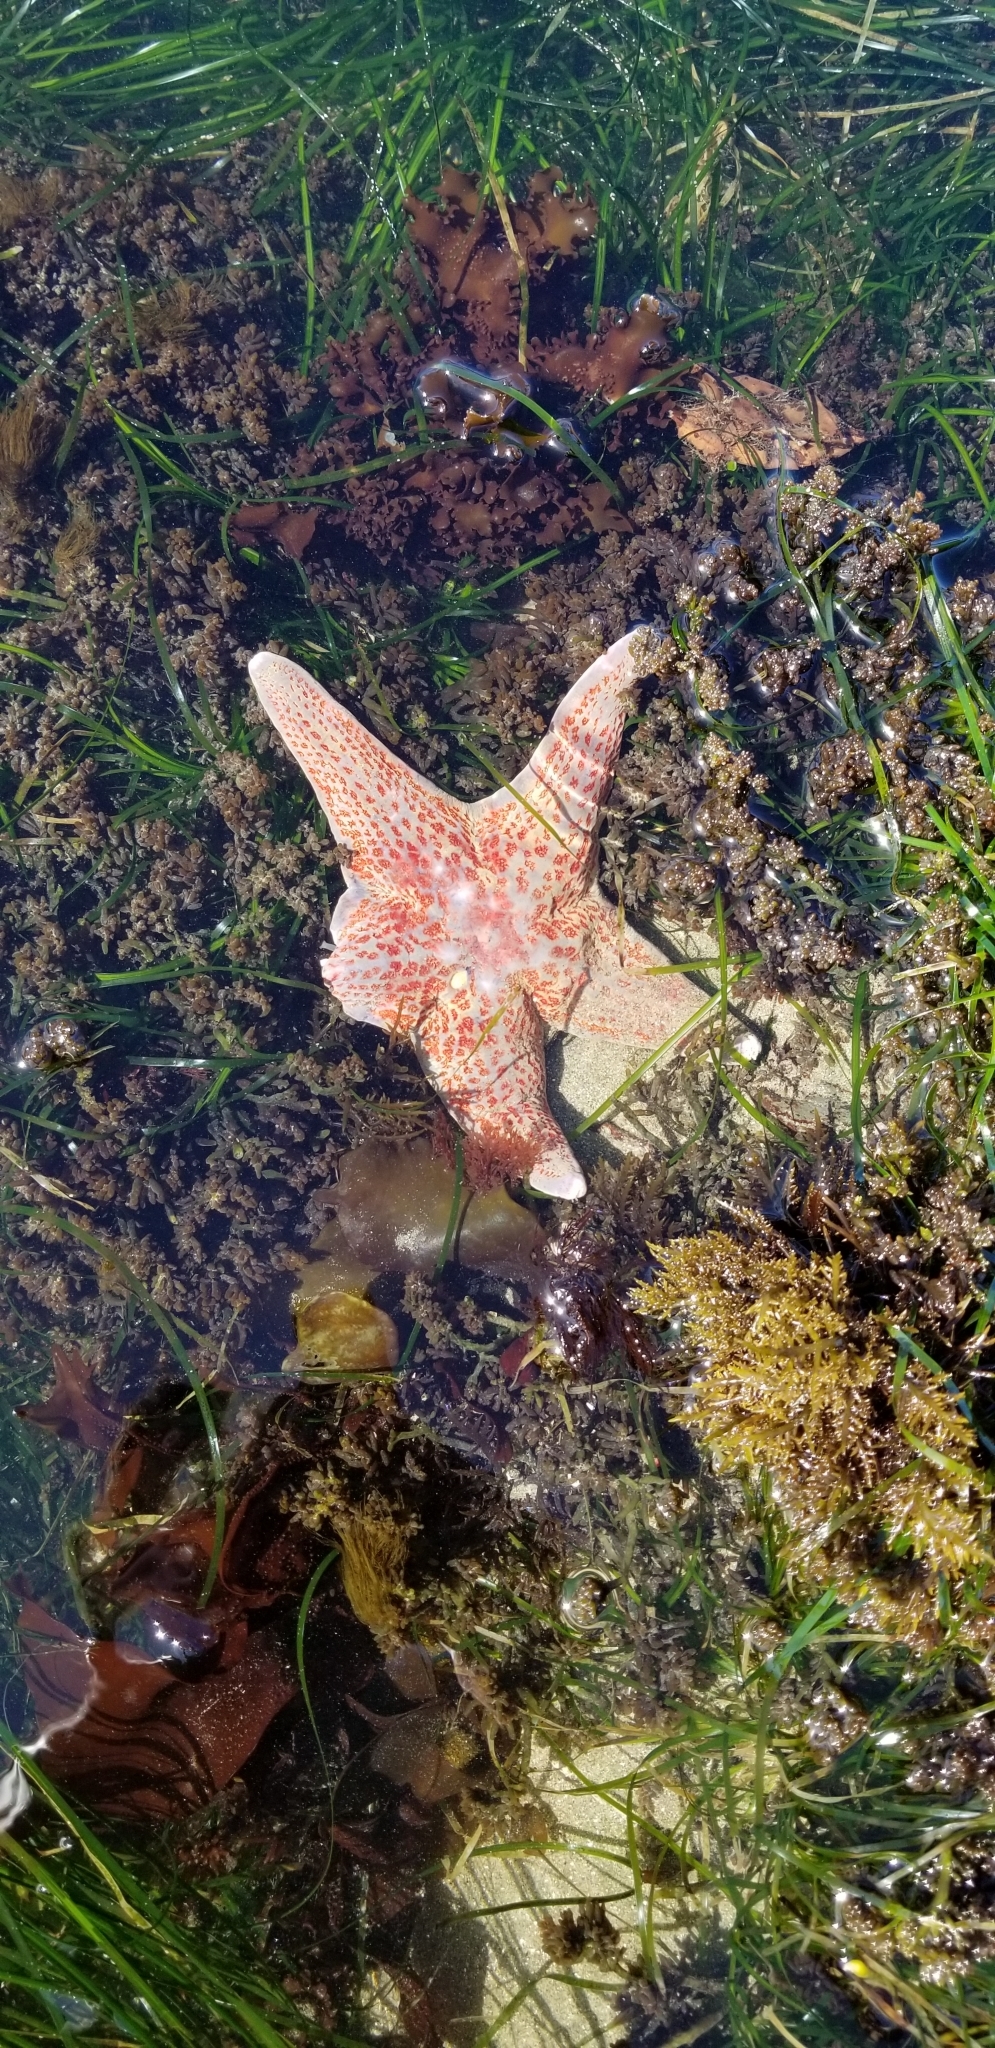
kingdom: Animalia
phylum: Echinodermata
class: Asteroidea
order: Valvatida
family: Asteropseidae
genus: Dermasterias
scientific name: Dermasterias imbricata
